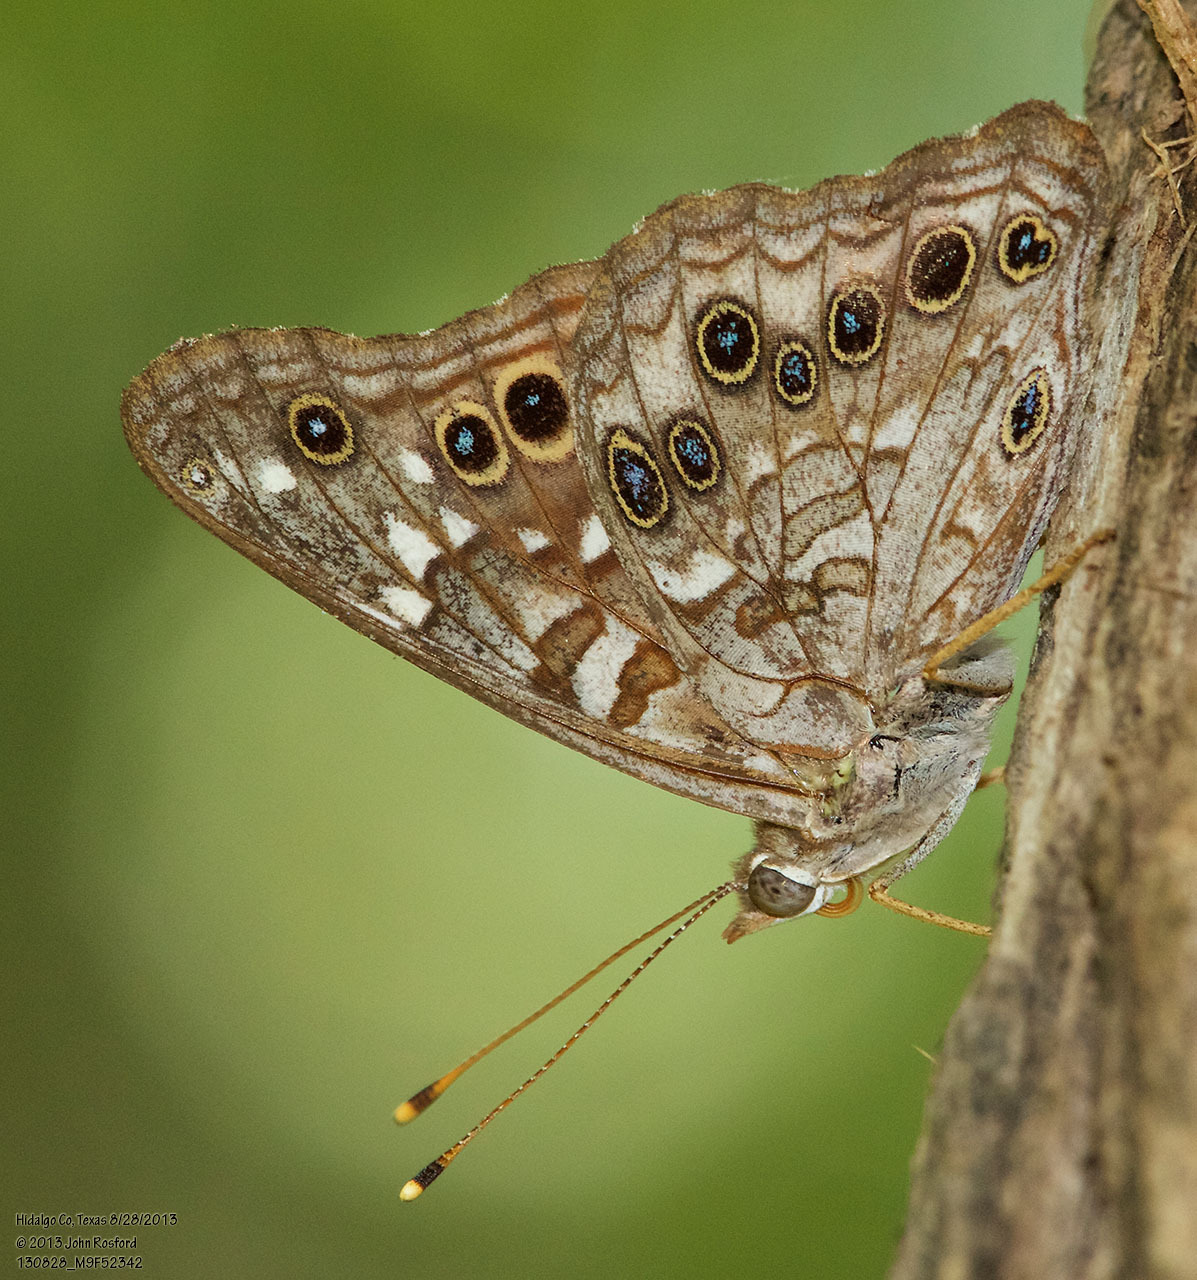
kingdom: Animalia
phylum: Arthropoda
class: Insecta
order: Lepidoptera
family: Nymphalidae
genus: Asterocampa
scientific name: Asterocampa leilia
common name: Empress leilia
